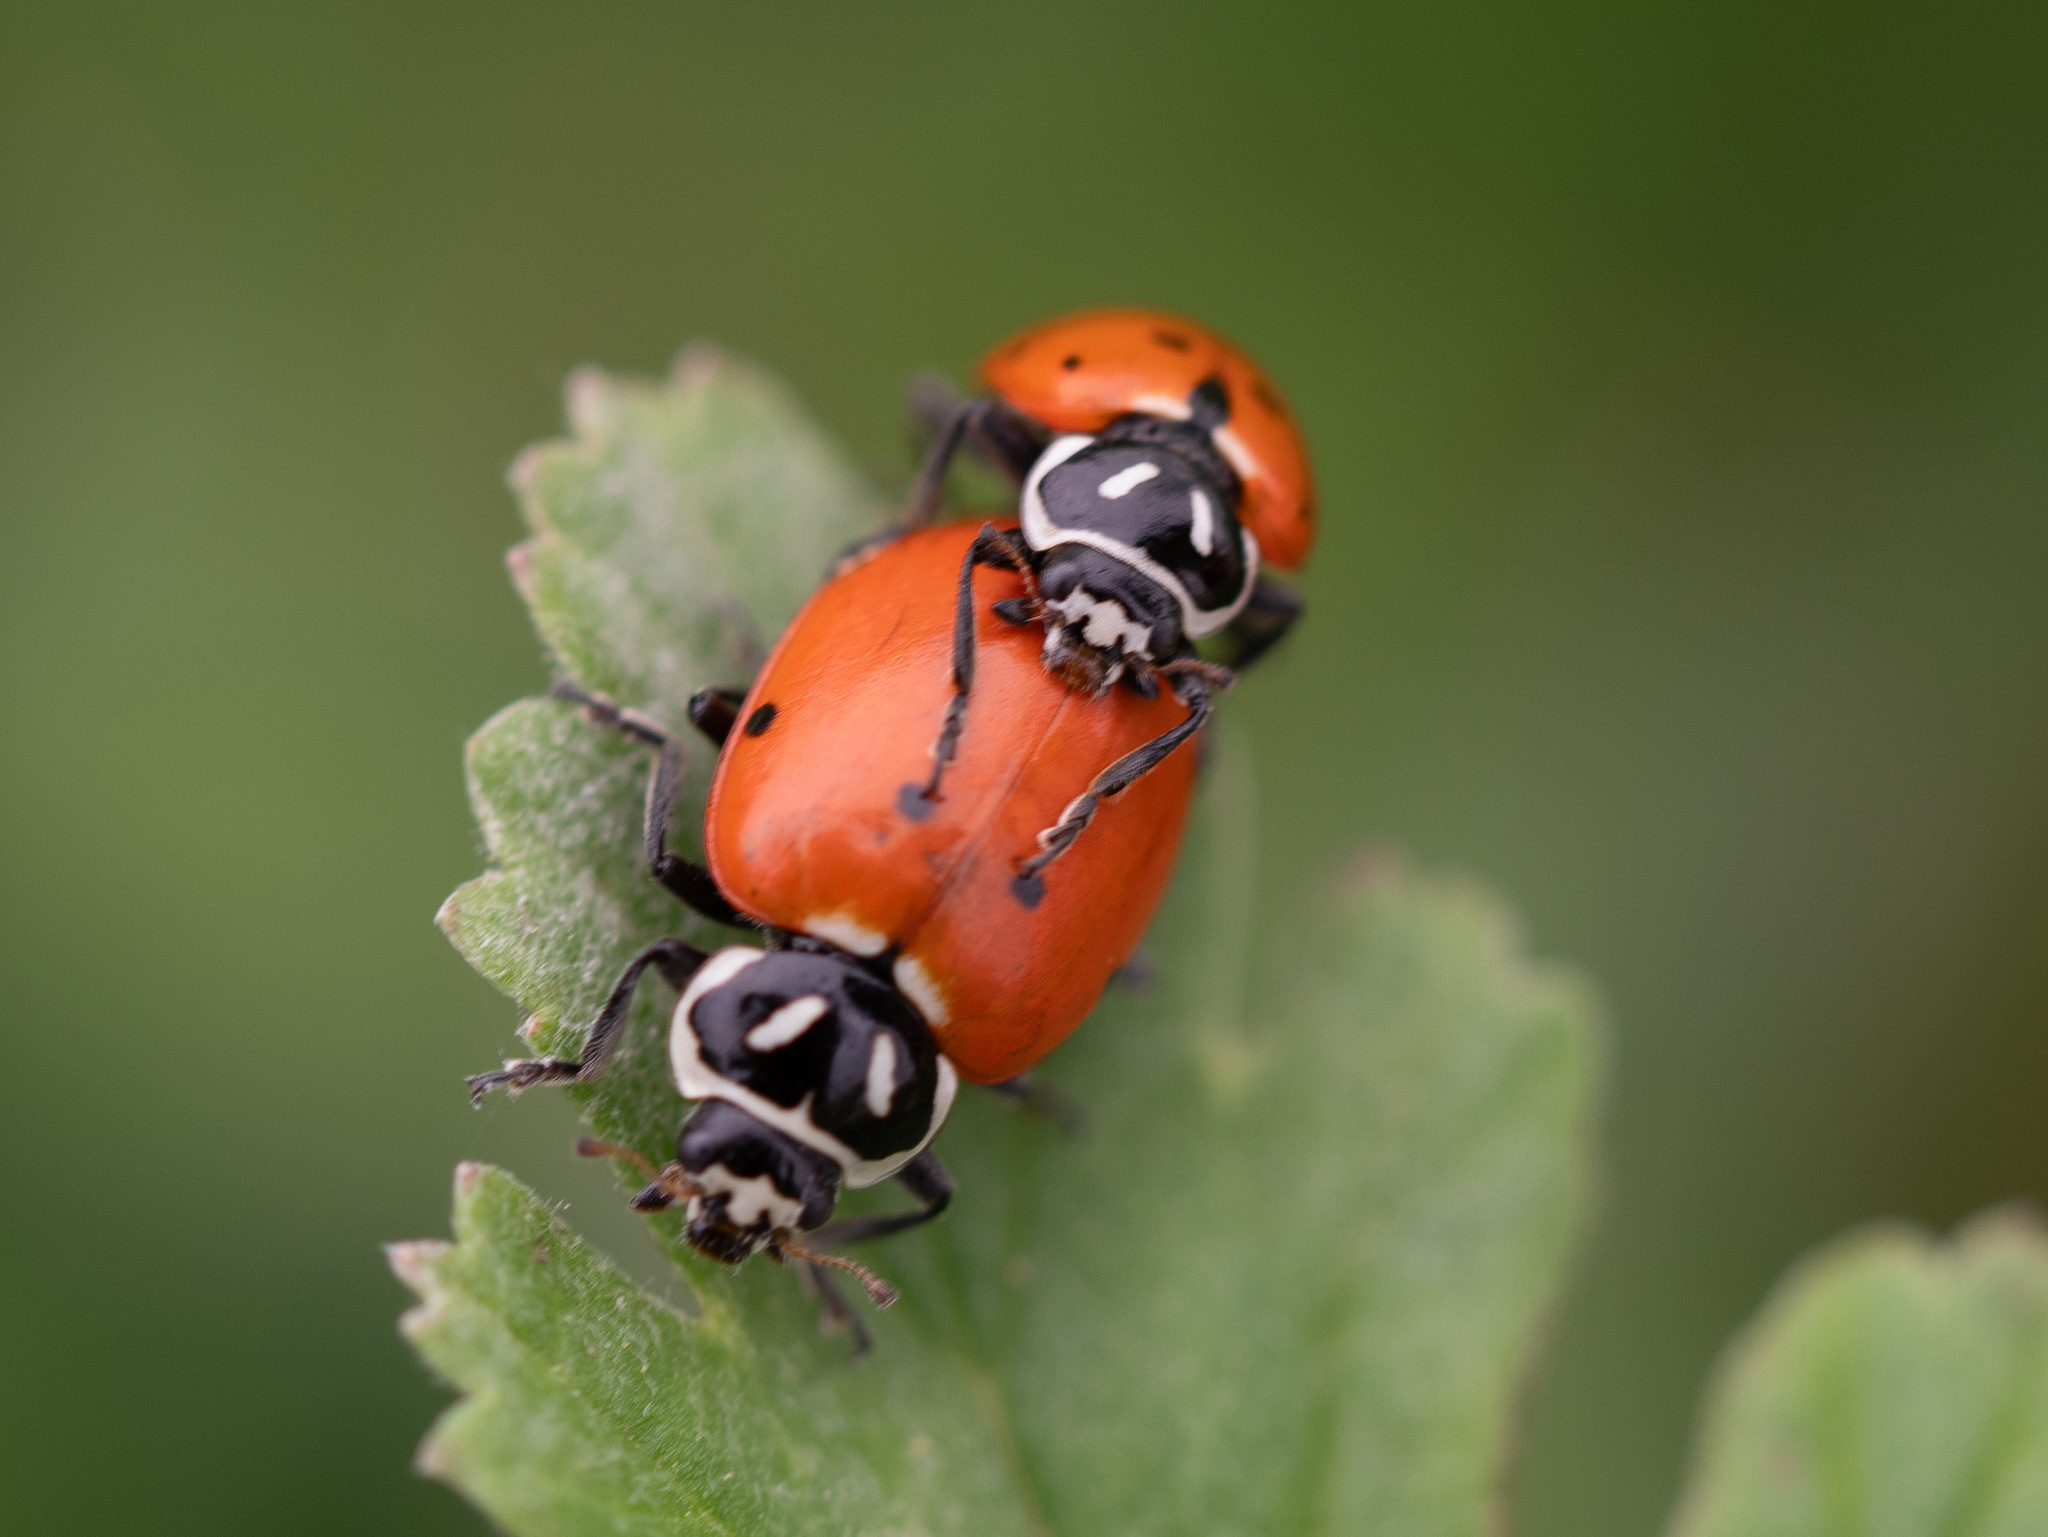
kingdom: Animalia
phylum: Arthropoda
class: Insecta
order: Coleoptera
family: Coccinellidae
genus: Hippodamia
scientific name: Hippodamia convergens
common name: Convergent lady beetle
